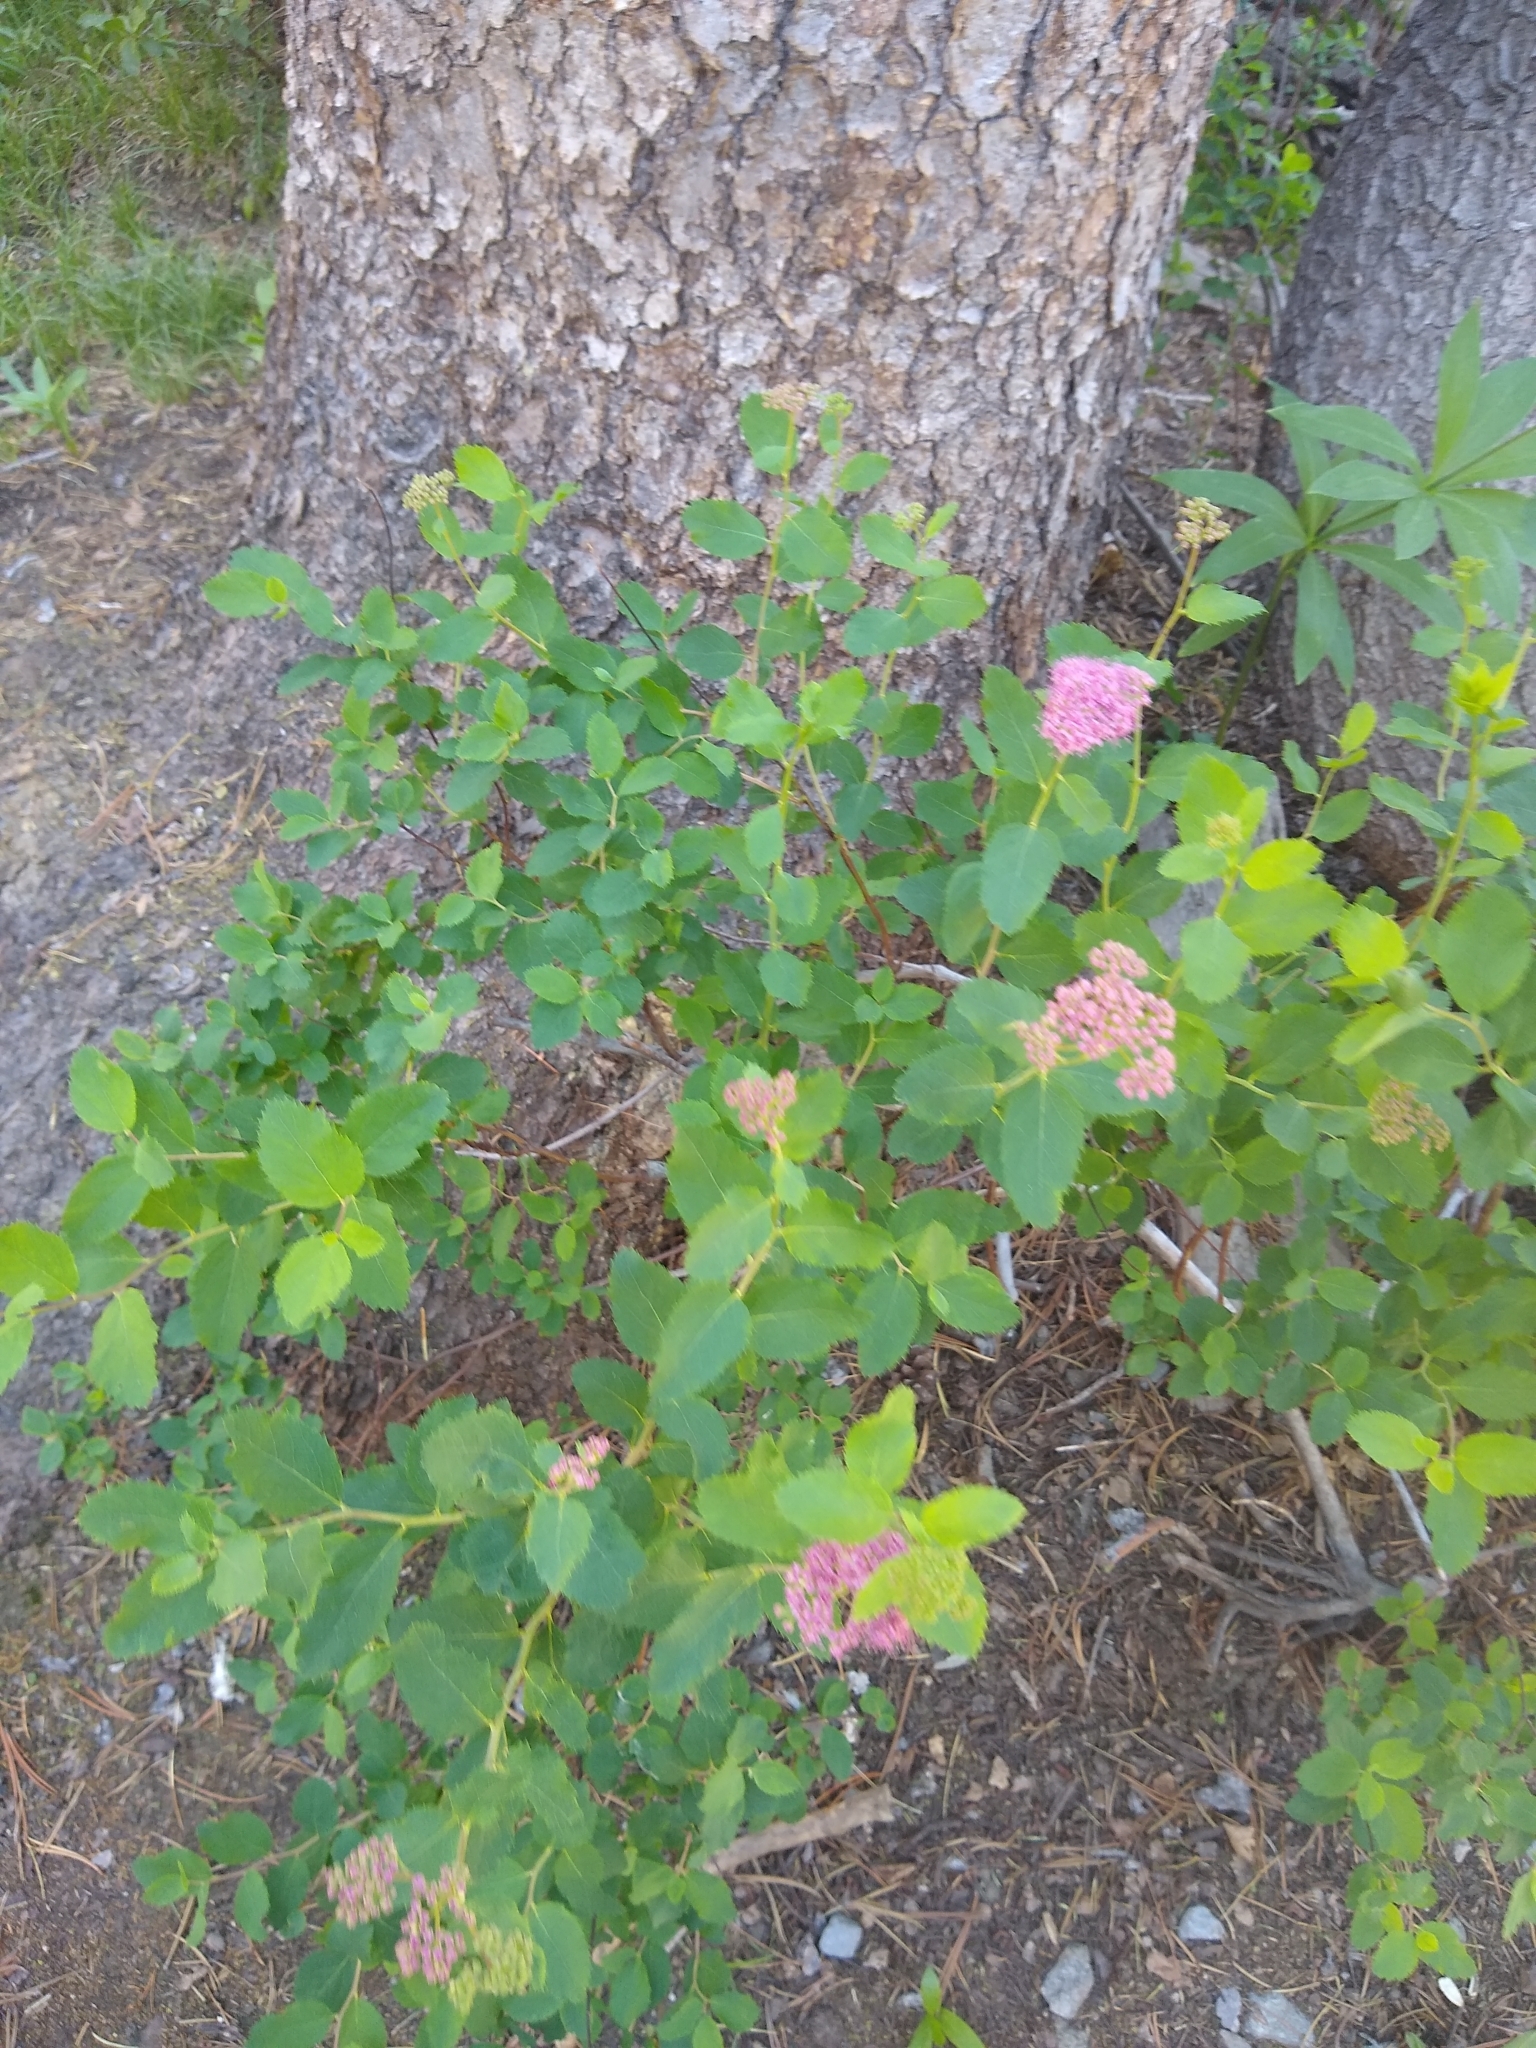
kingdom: Plantae
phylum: Tracheophyta
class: Magnoliopsida
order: Rosales
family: Rosaceae
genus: Spiraea
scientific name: Spiraea splendens
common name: Subalpine meadowsweet
